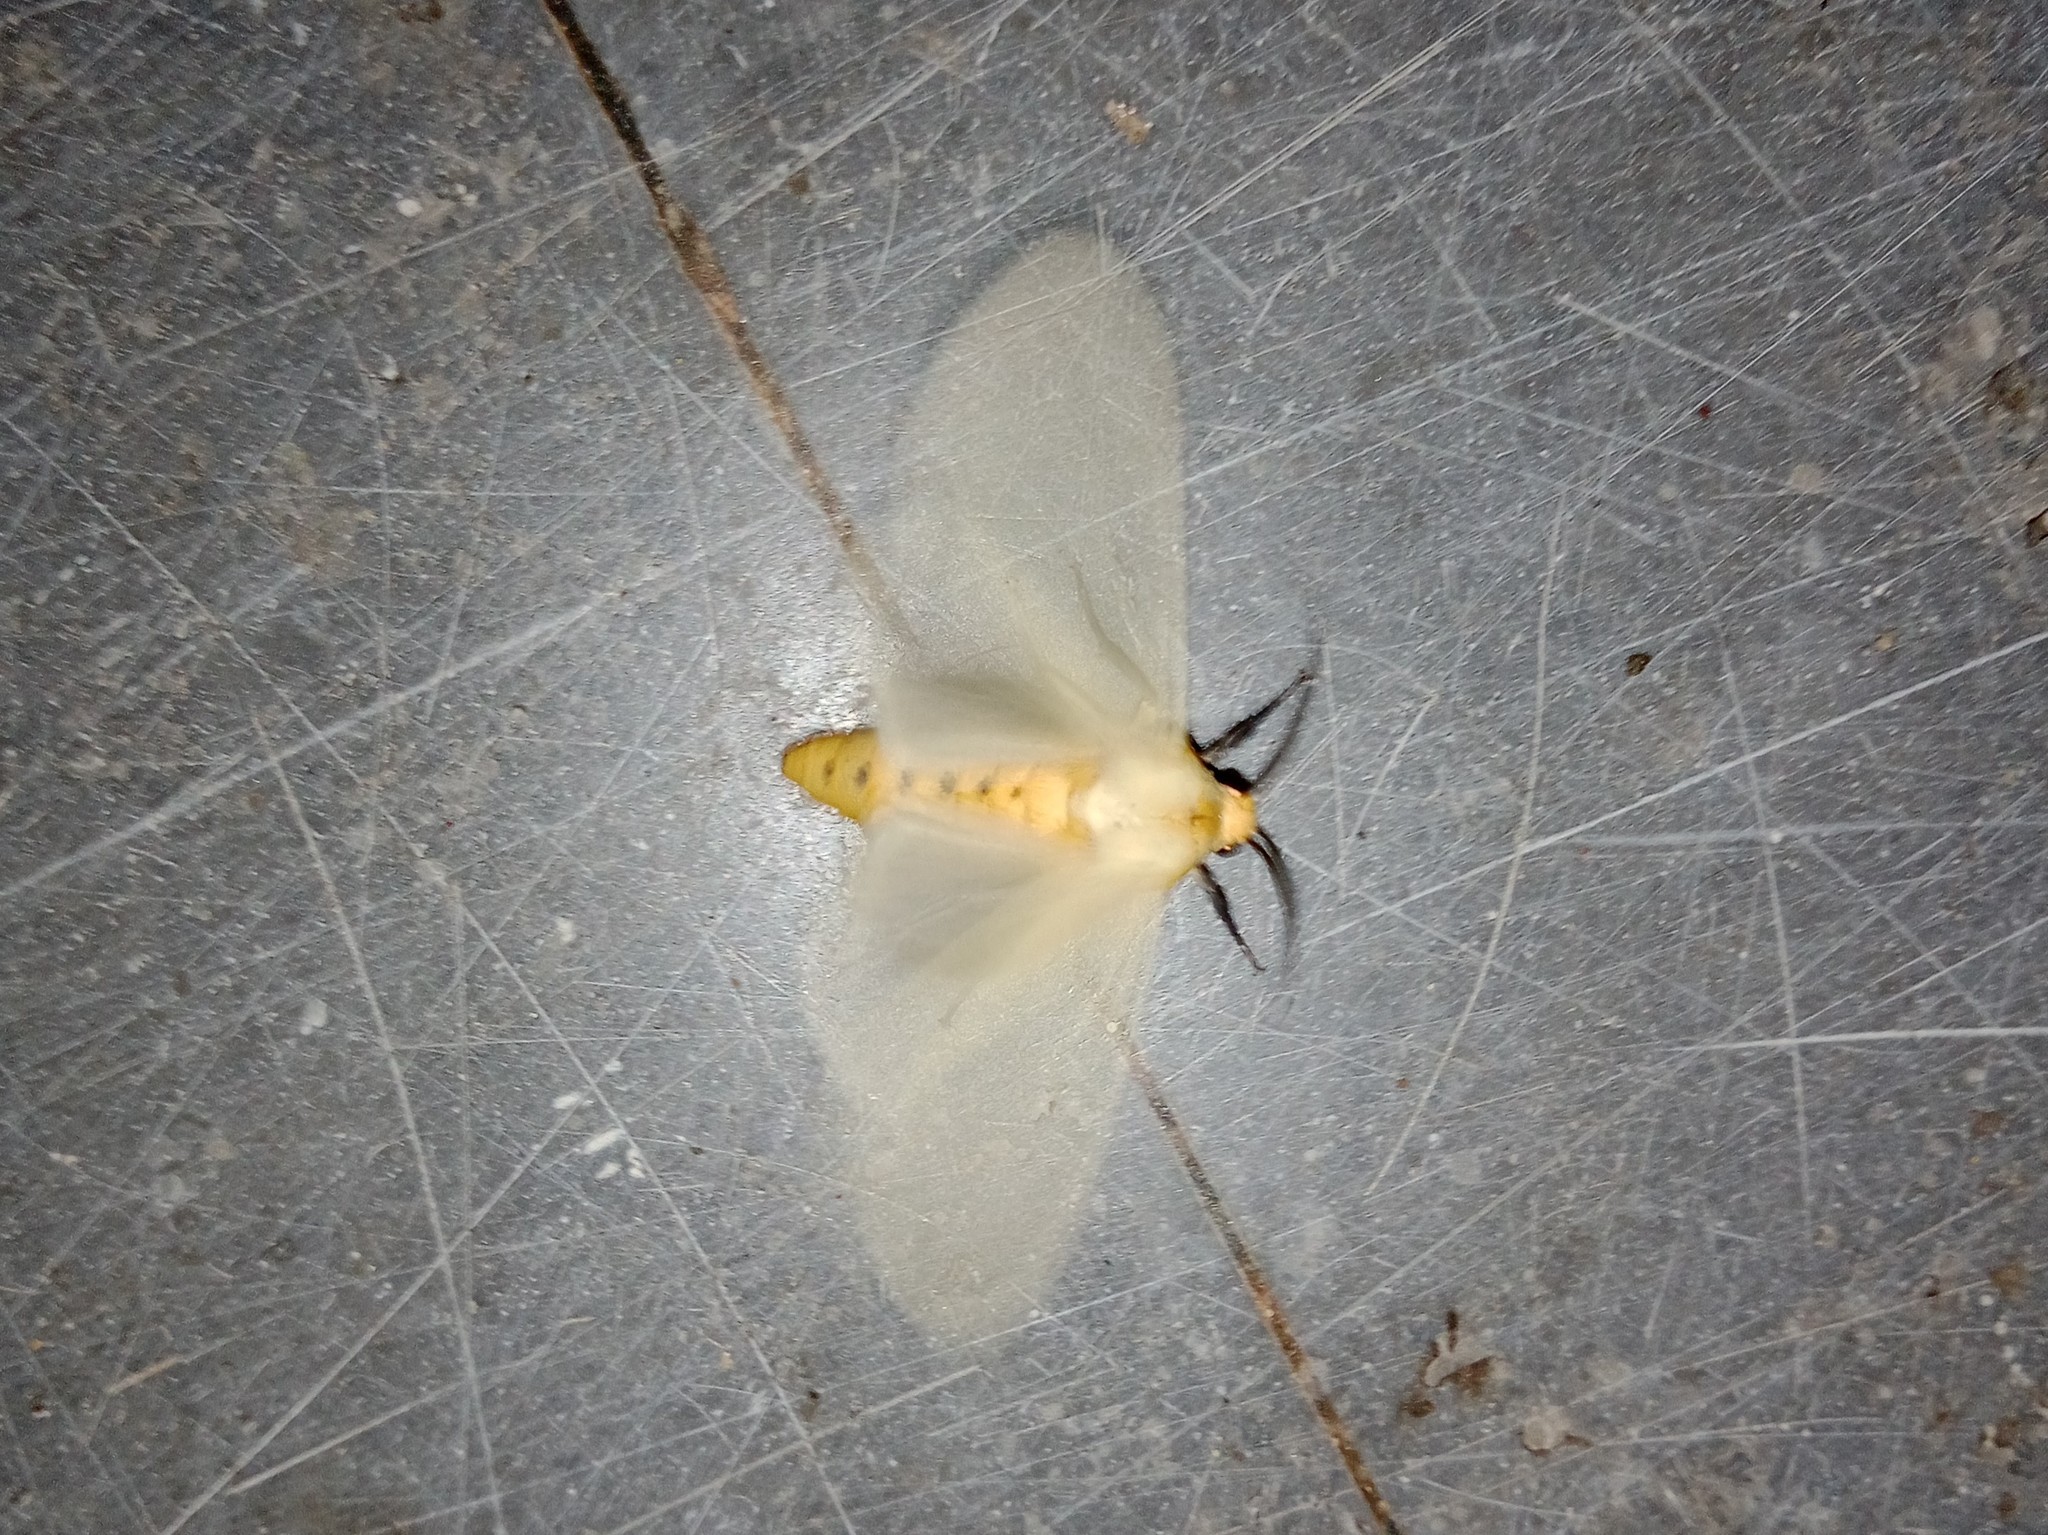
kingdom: Animalia
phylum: Arthropoda
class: Insecta
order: Lepidoptera
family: Erebidae
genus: Pareuchaetes
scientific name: Pareuchaetes pseudoinsulata
